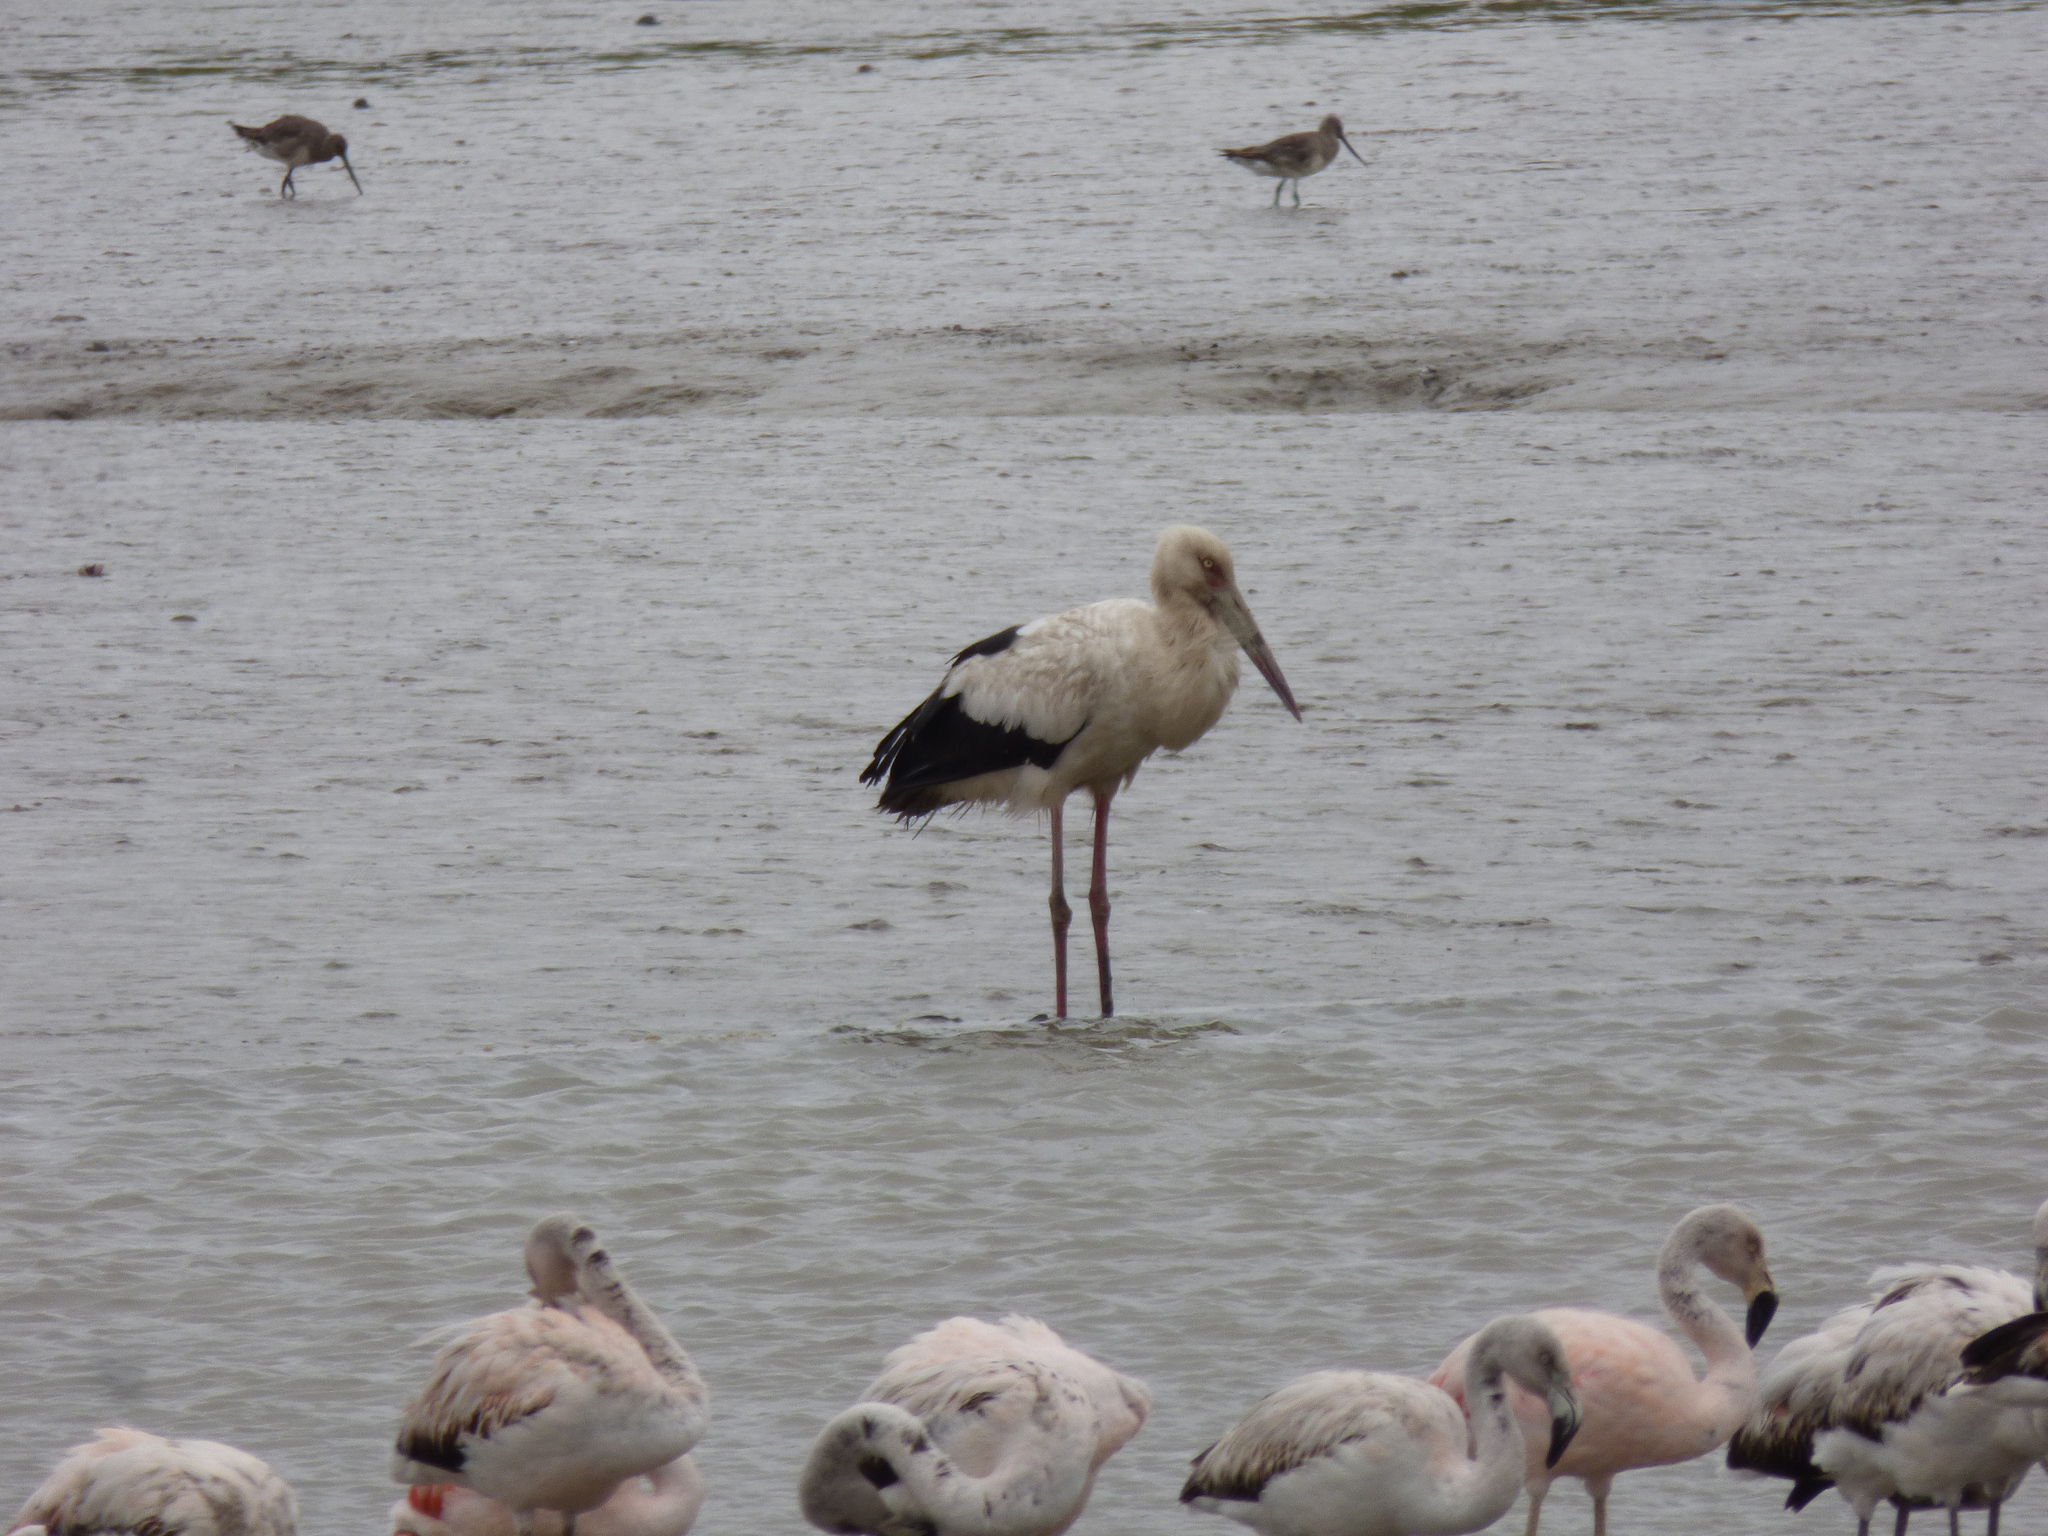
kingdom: Animalia
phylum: Chordata
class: Aves
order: Ciconiiformes
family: Ciconiidae
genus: Ciconia
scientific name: Ciconia maguari
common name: Maguari stork
